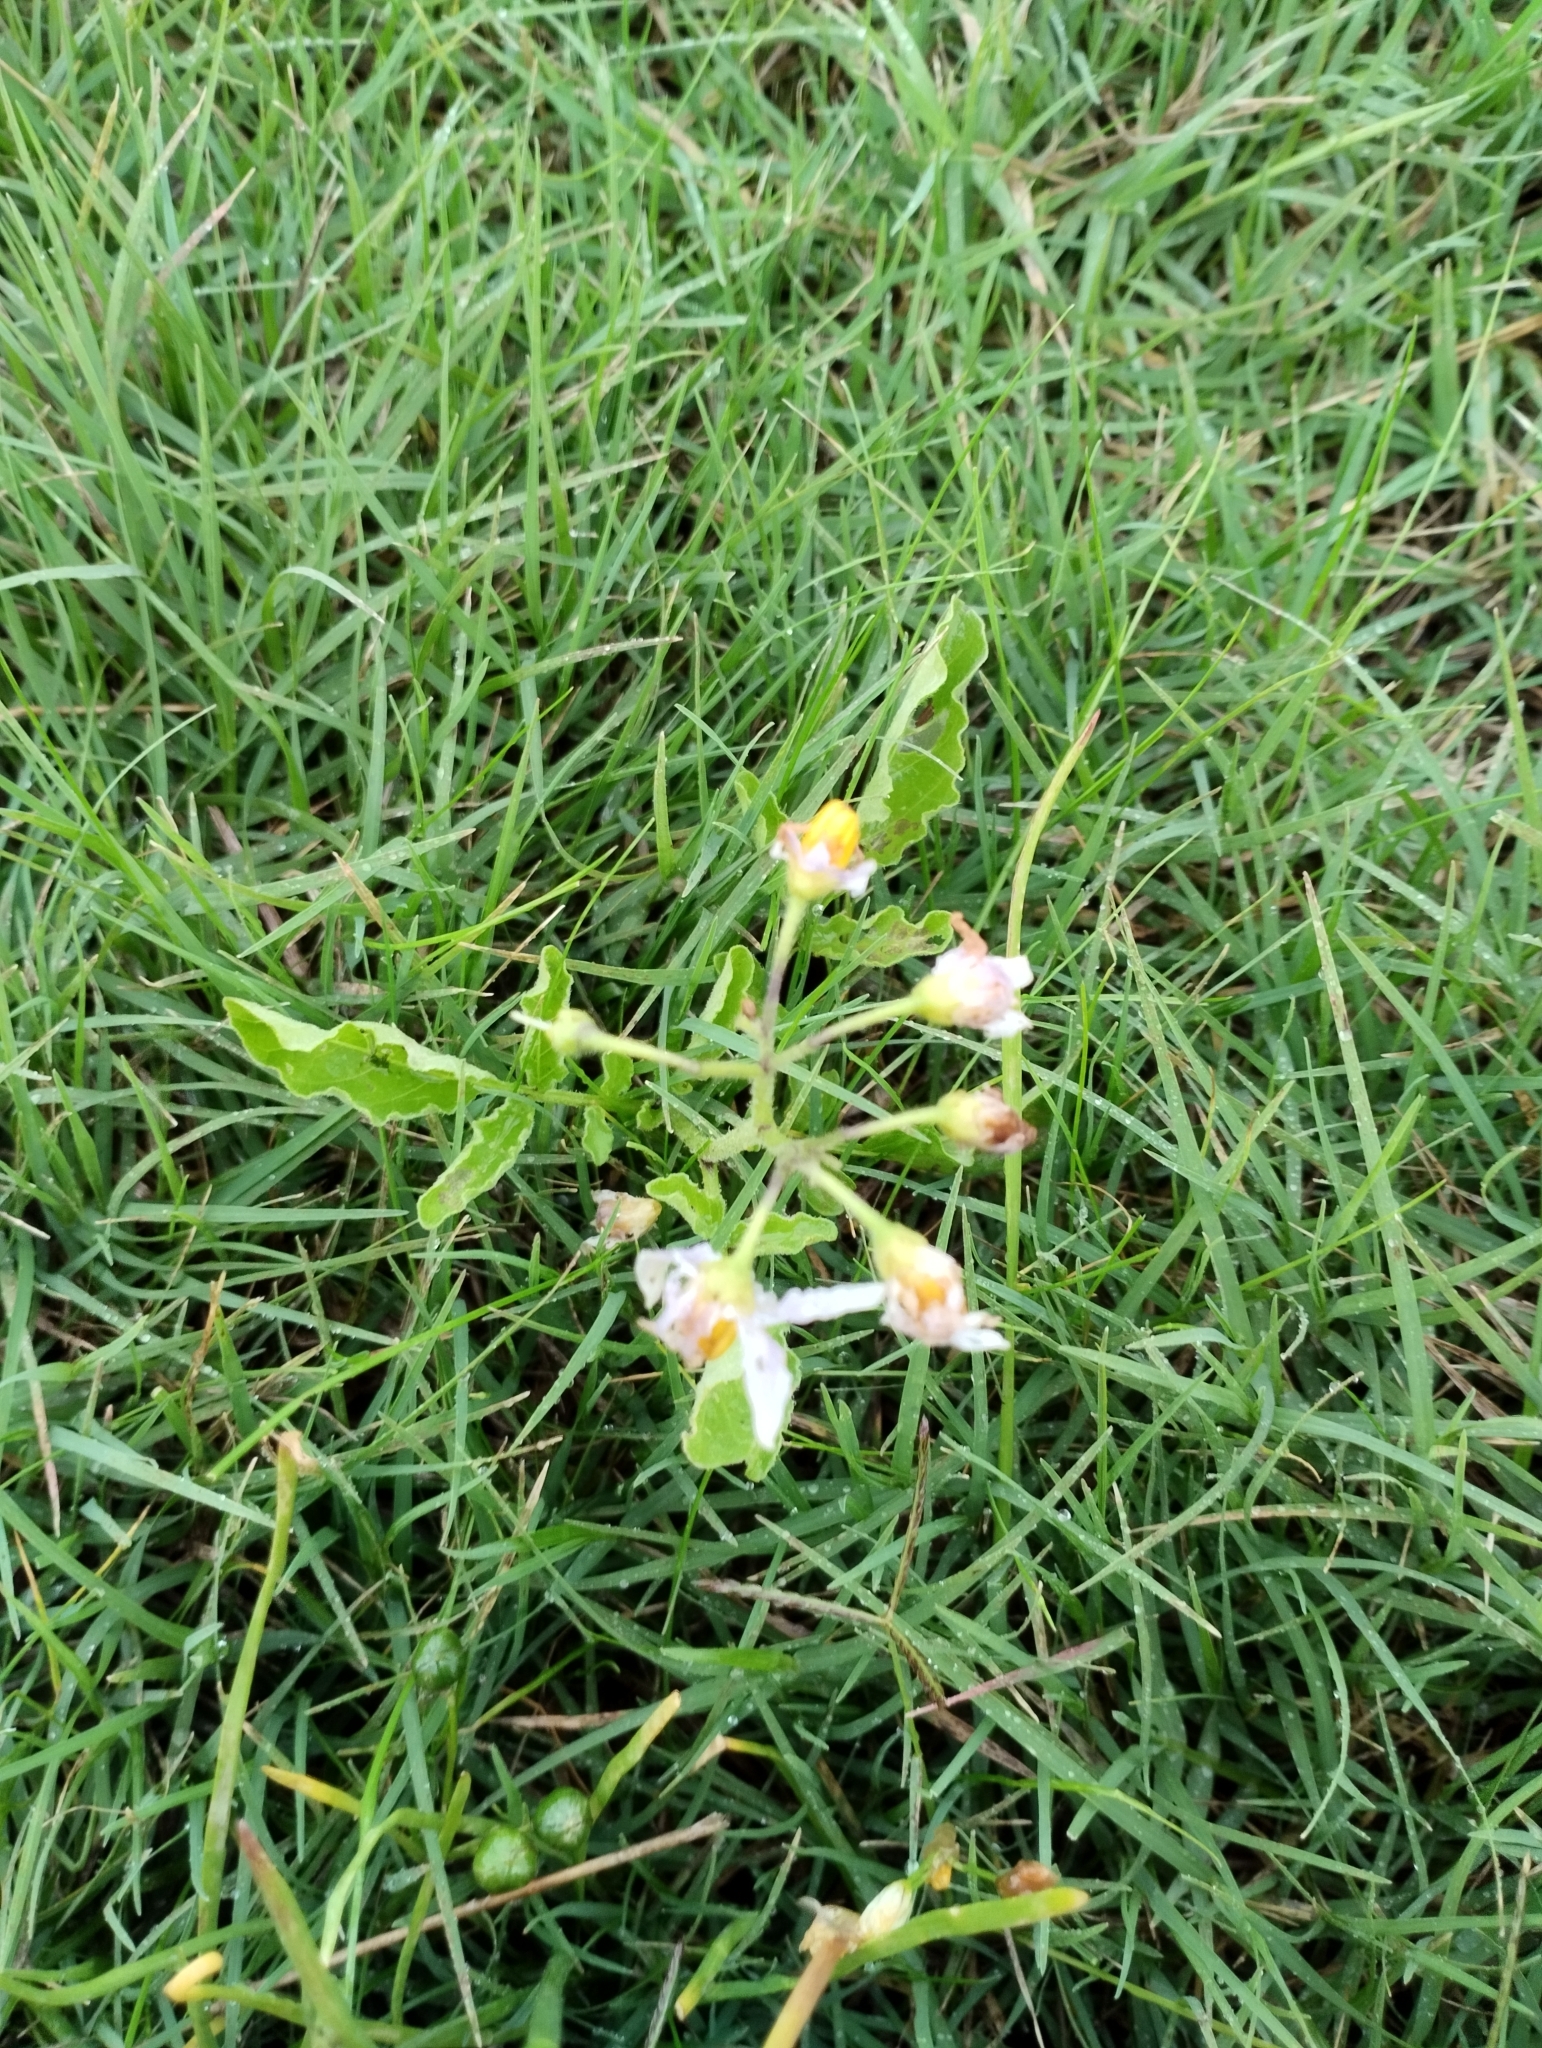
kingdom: Plantae
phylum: Tracheophyta
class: Magnoliopsida
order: Solanales
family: Solanaceae
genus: Solanum
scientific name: Solanum commersonii
